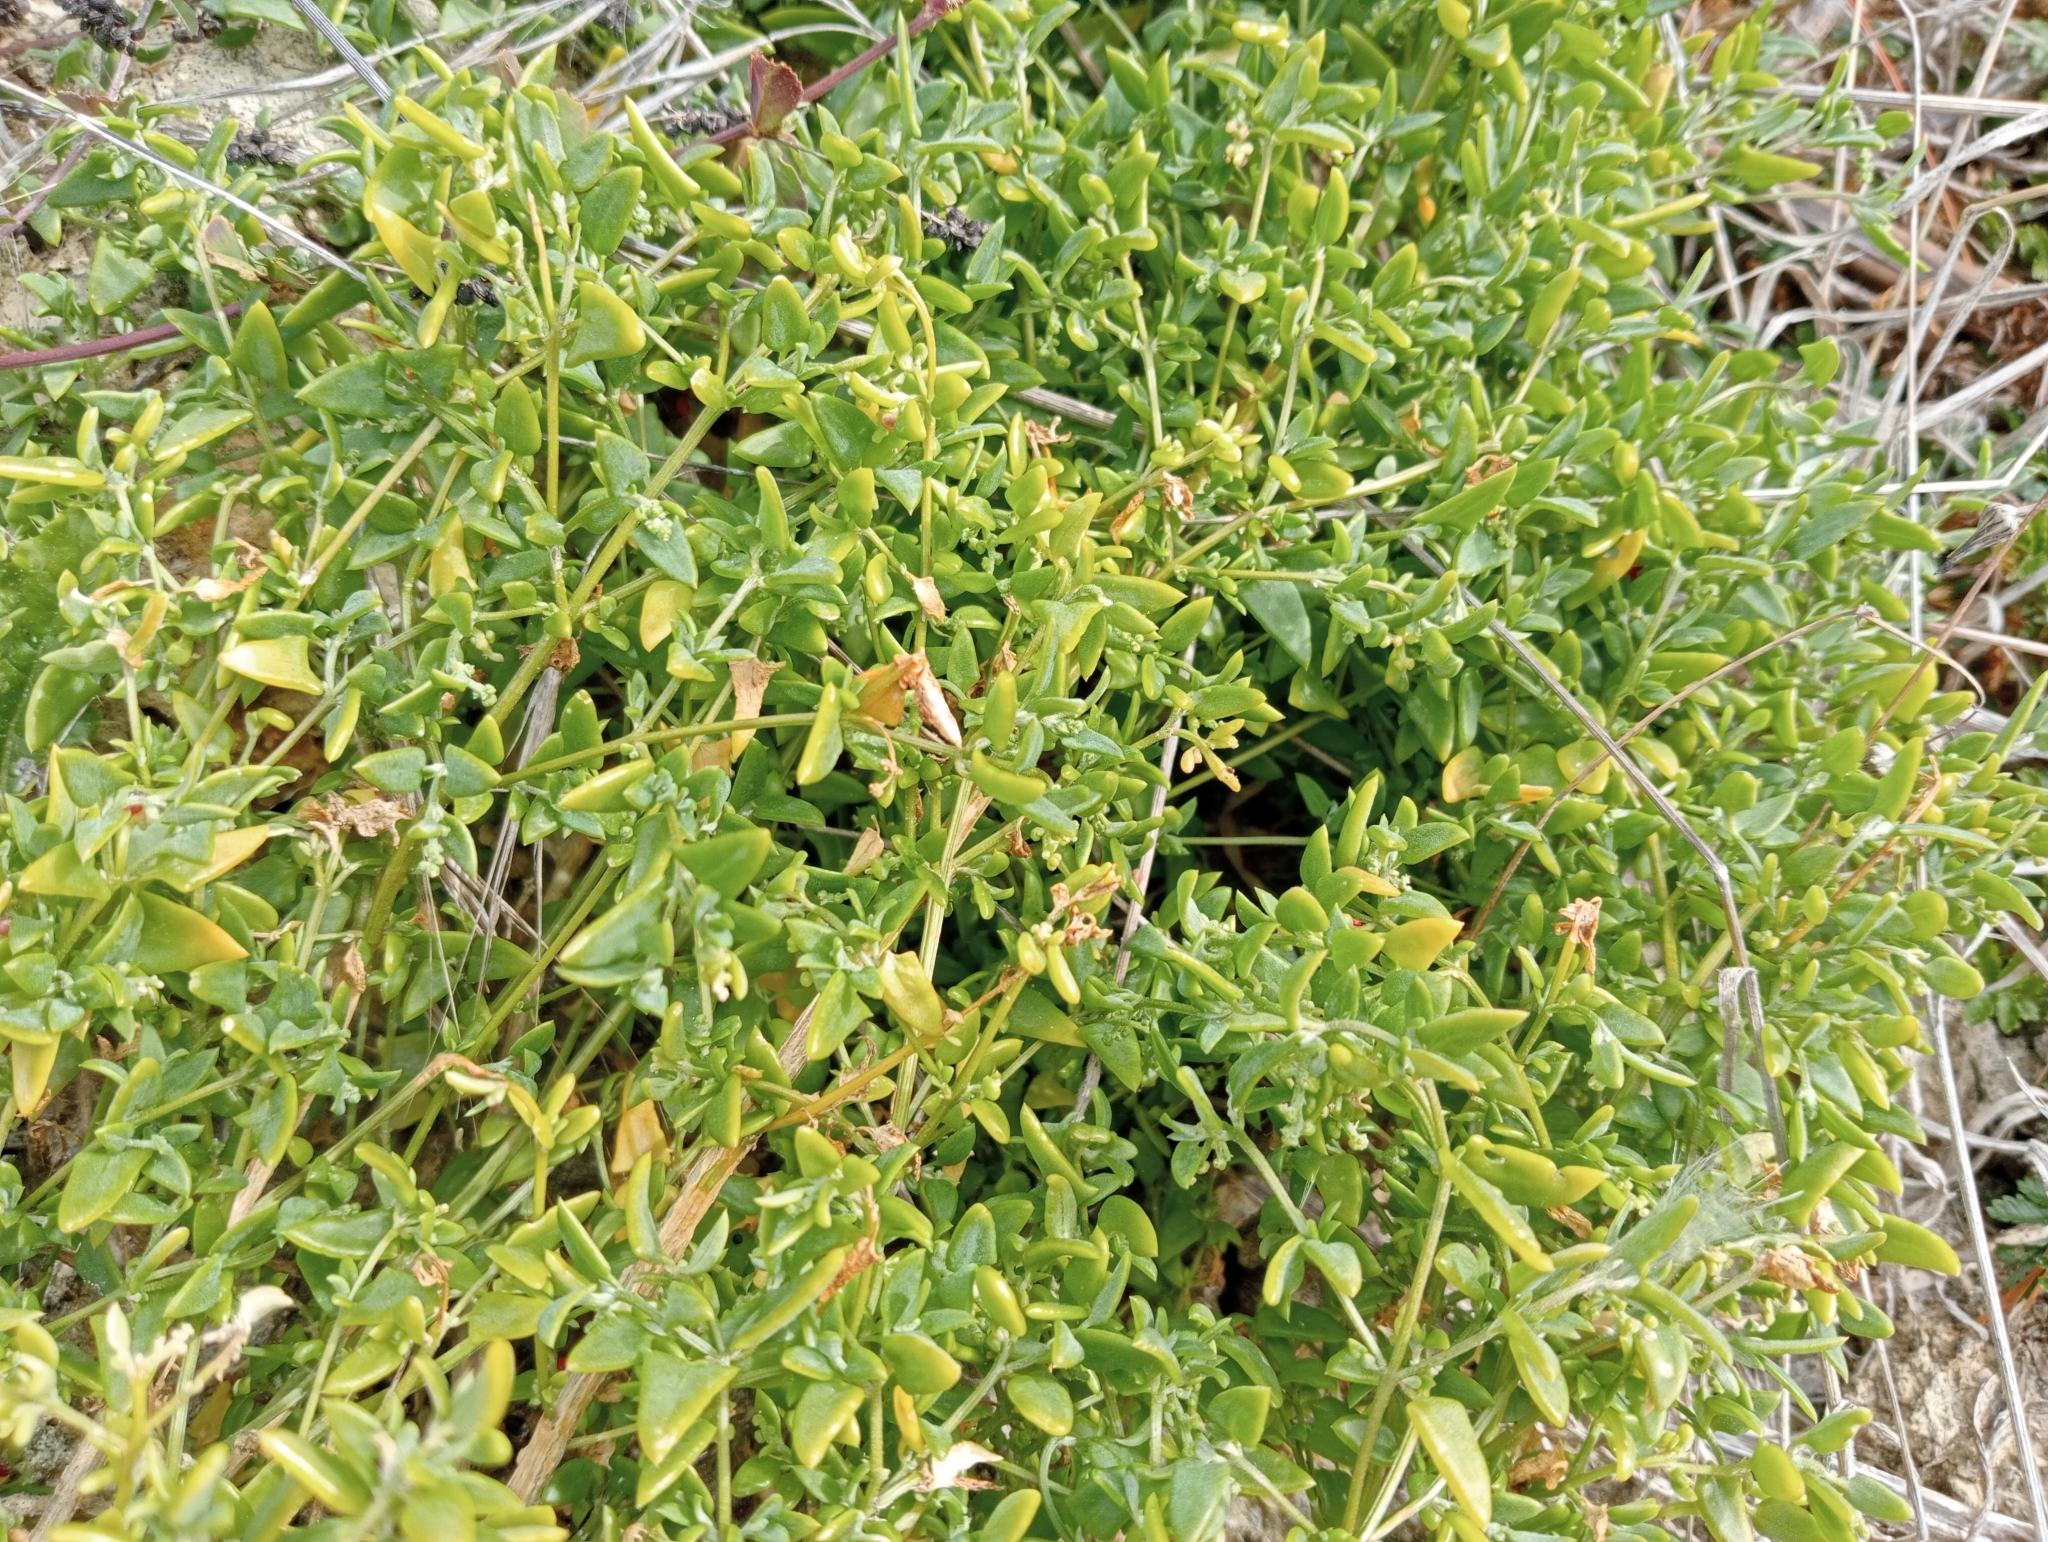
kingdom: Plantae
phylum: Tracheophyta
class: Magnoliopsida
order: Caryophyllales
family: Amaranthaceae
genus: Chenopodium
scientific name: Chenopodium nutans
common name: Climbing-saltbush
